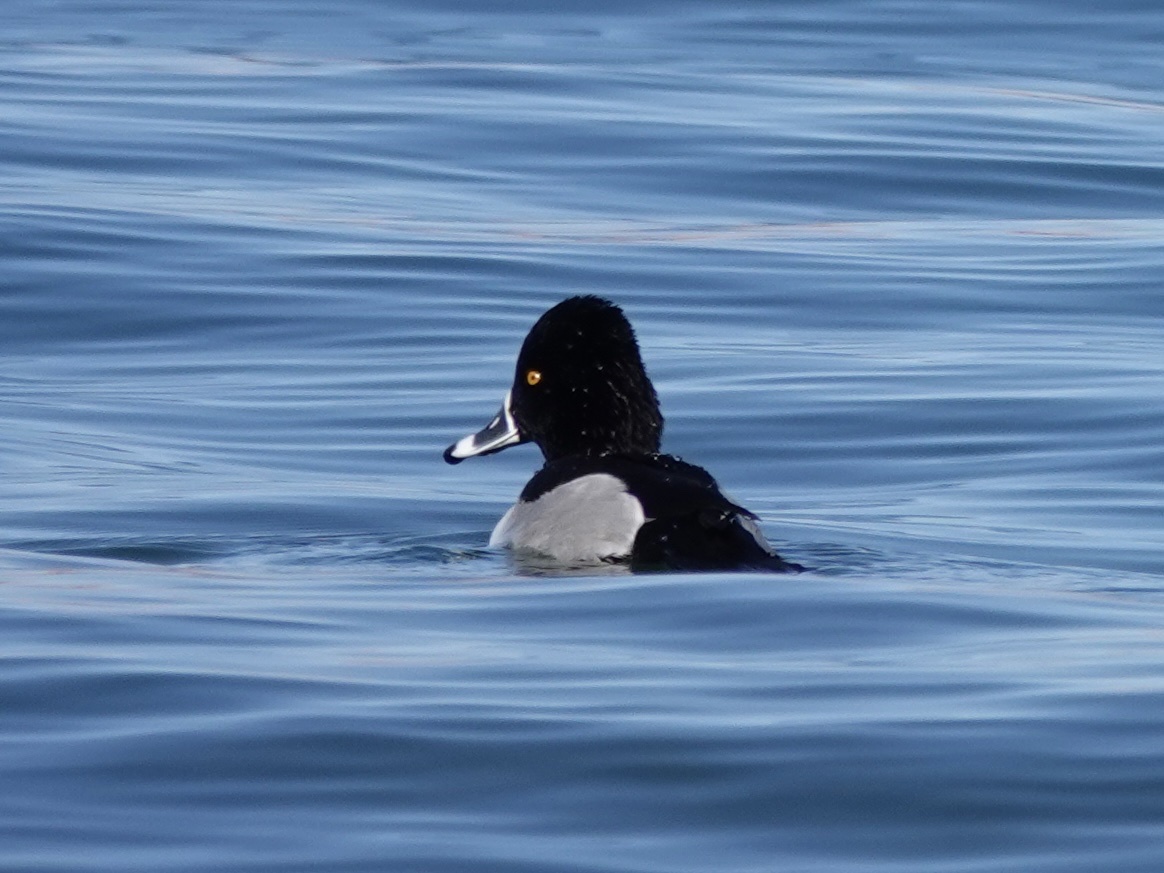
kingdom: Animalia
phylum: Chordata
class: Aves
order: Anseriformes
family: Anatidae
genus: Aythya
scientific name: Aythya collaris
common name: Ring-necked duck
